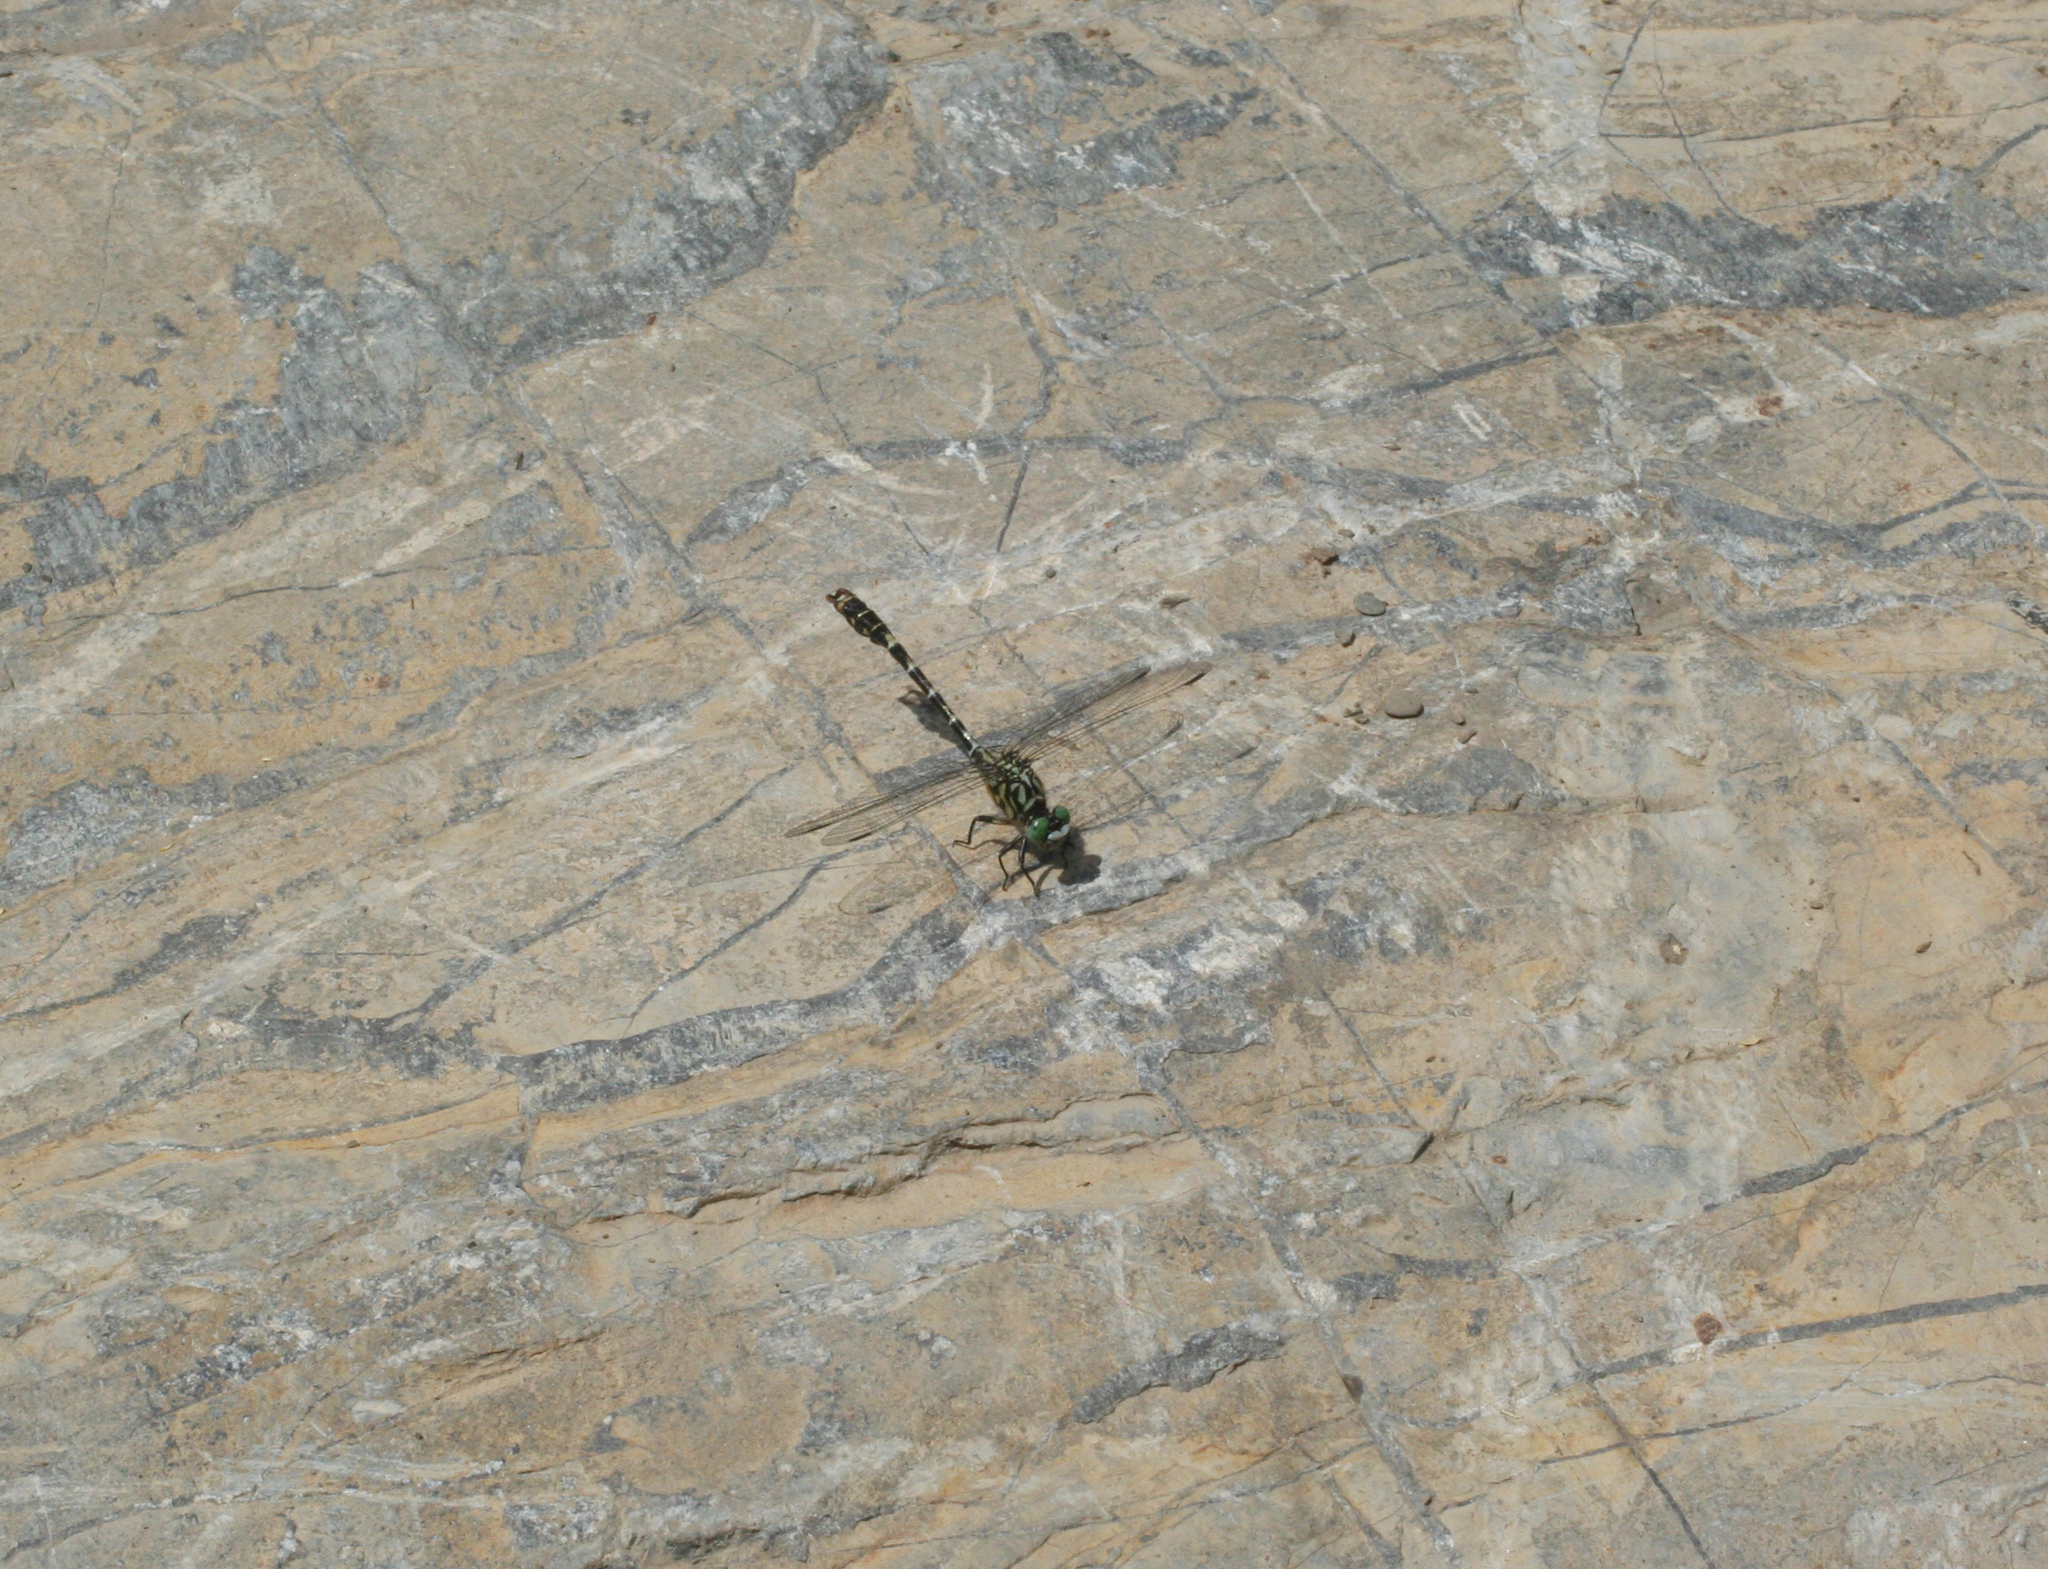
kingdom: Animalia
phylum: Arthropoda
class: Insecta
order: Odonata
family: Gomphidae
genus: Onychogomphus
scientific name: Onychogomphus forcipatus
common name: Small pincertail
